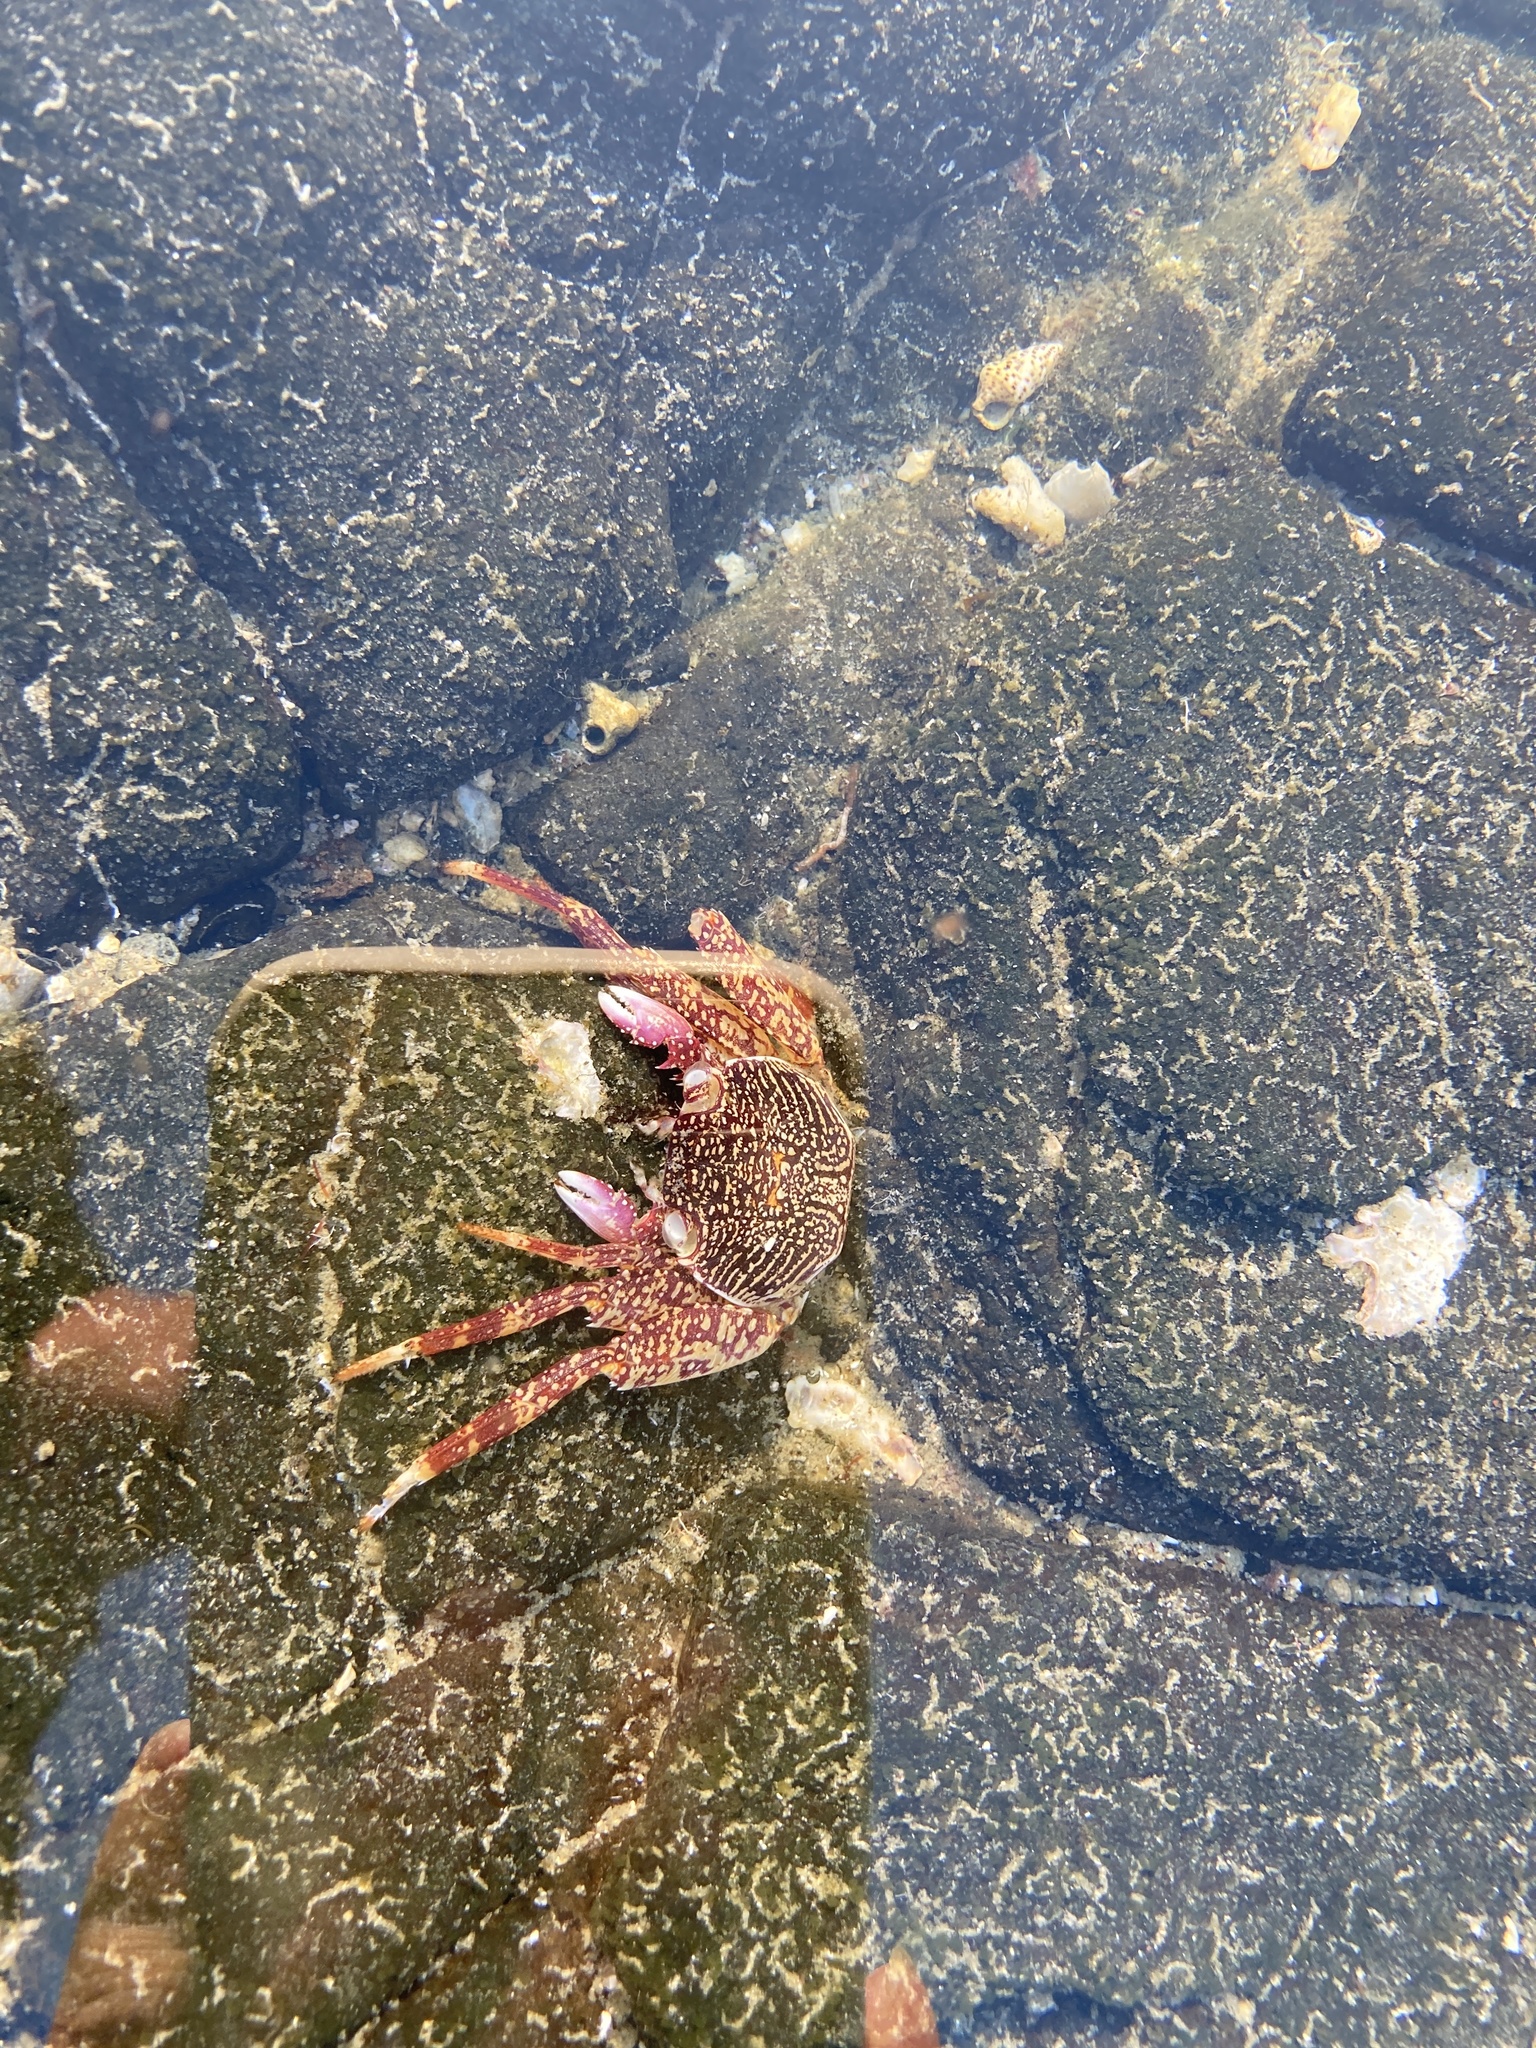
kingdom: Animalia
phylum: Arthropoda
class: Malacostraca
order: Decapoda
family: Grapsidae
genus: Grapsus
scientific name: Grapsus albolineatus
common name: Mottled lightfoot crab
